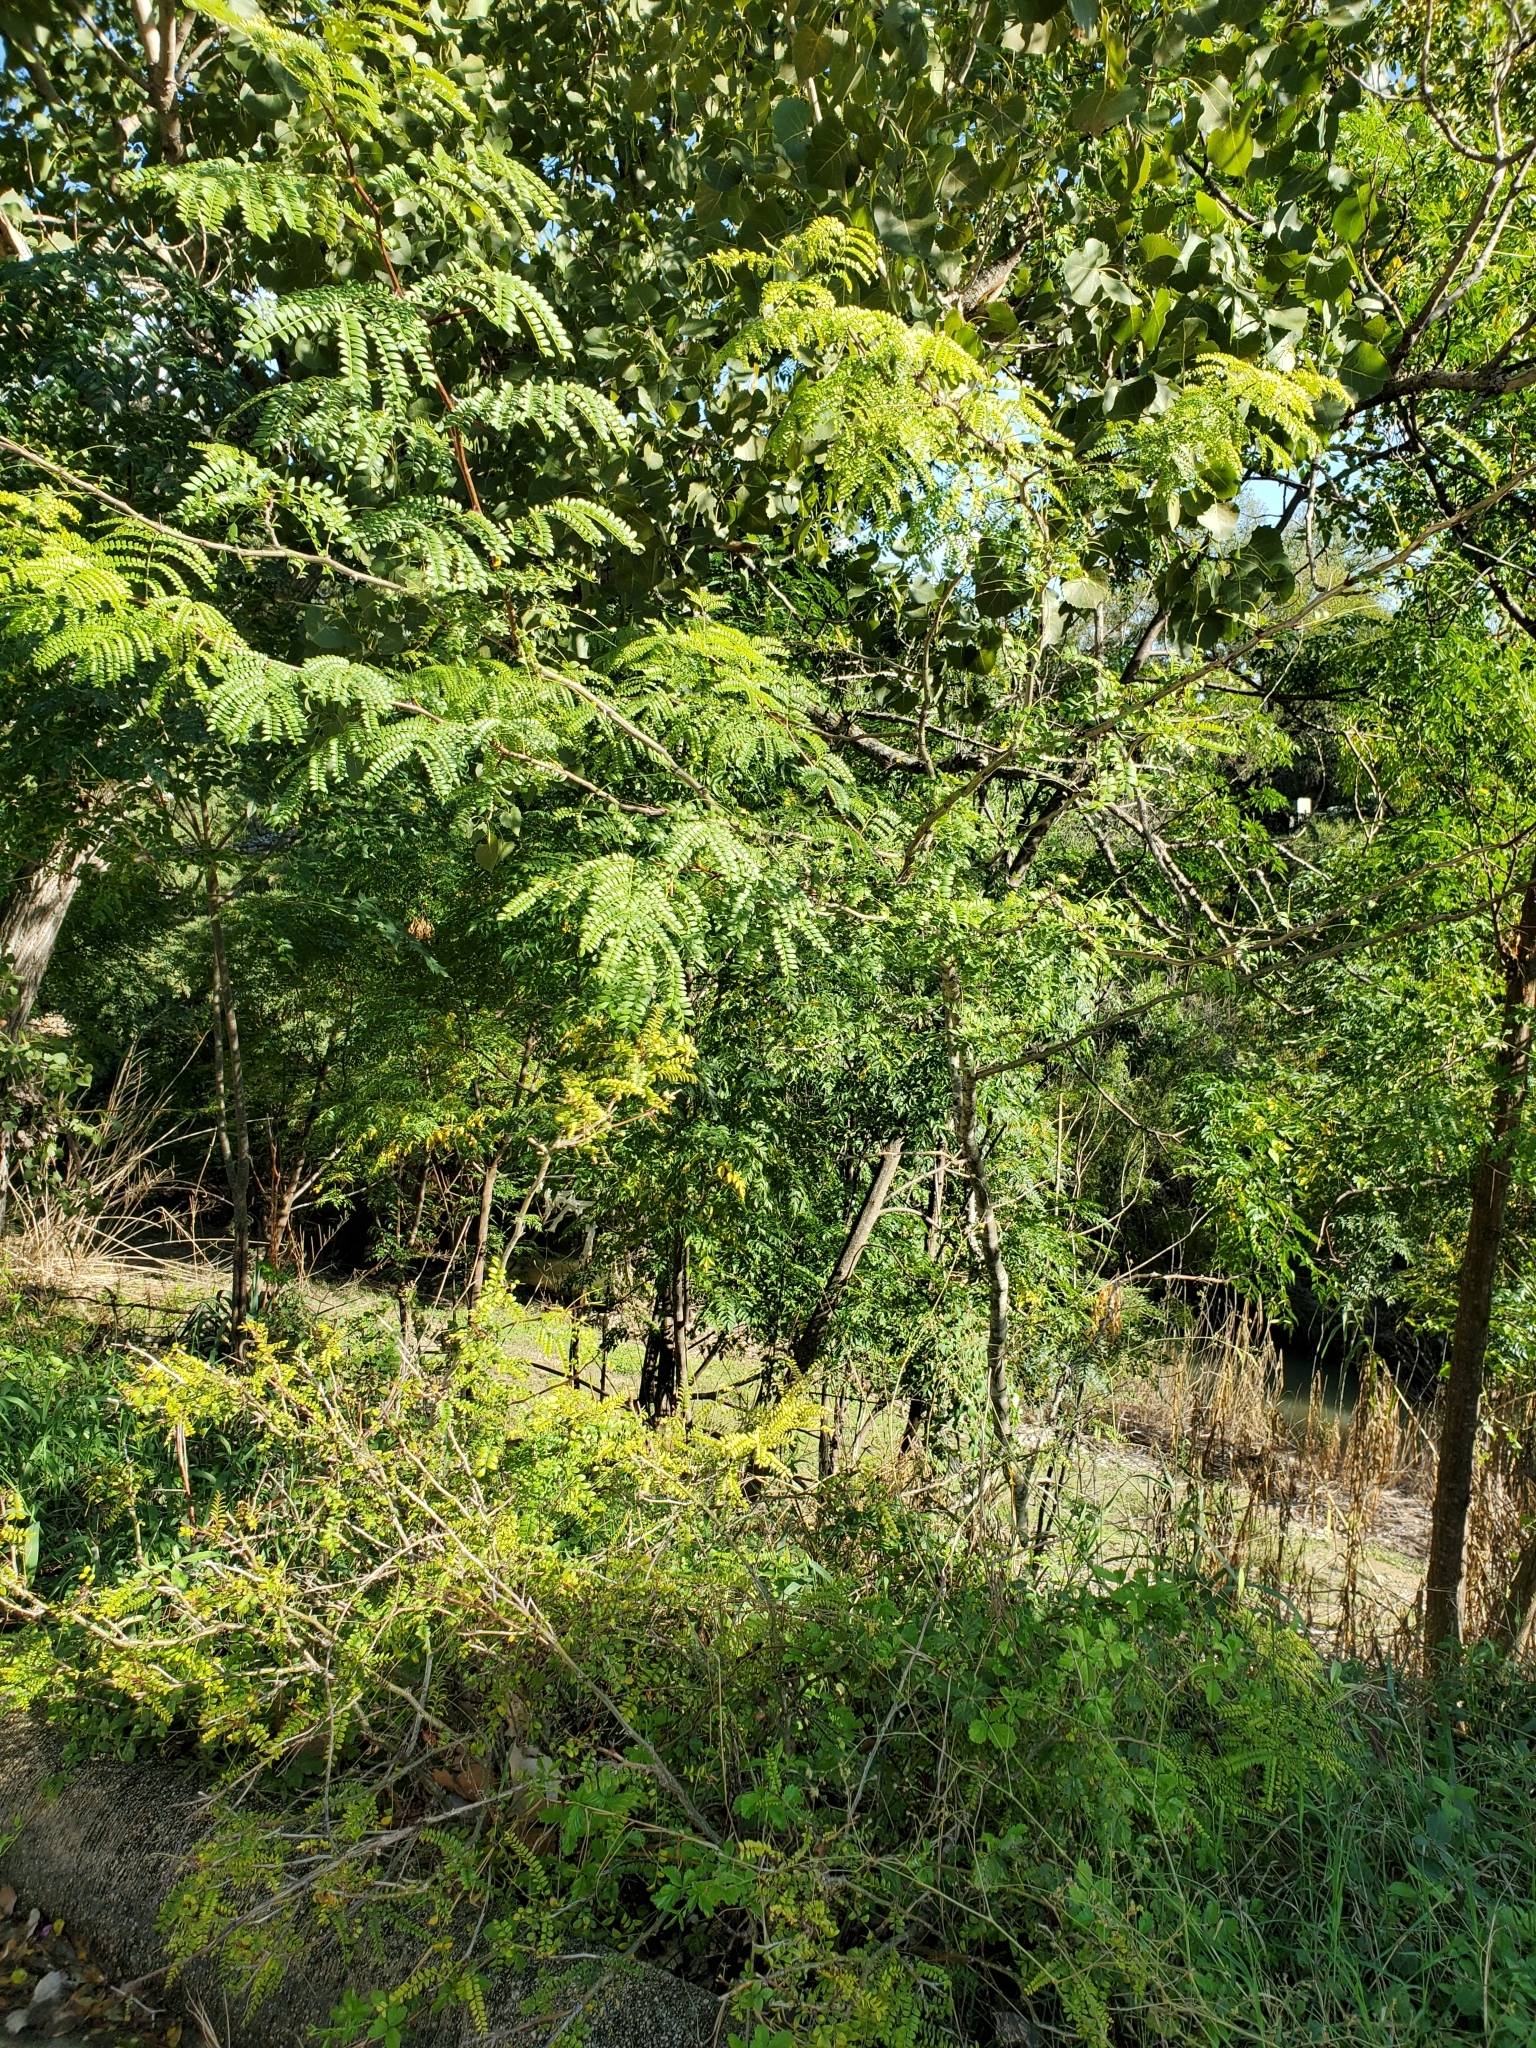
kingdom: Plantae
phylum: Tracheophyta
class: Magnoliopsida
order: Fabales
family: Fabaceae
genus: Gleditsia
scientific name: Gleditsia triacanthos
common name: Common honeylocust
